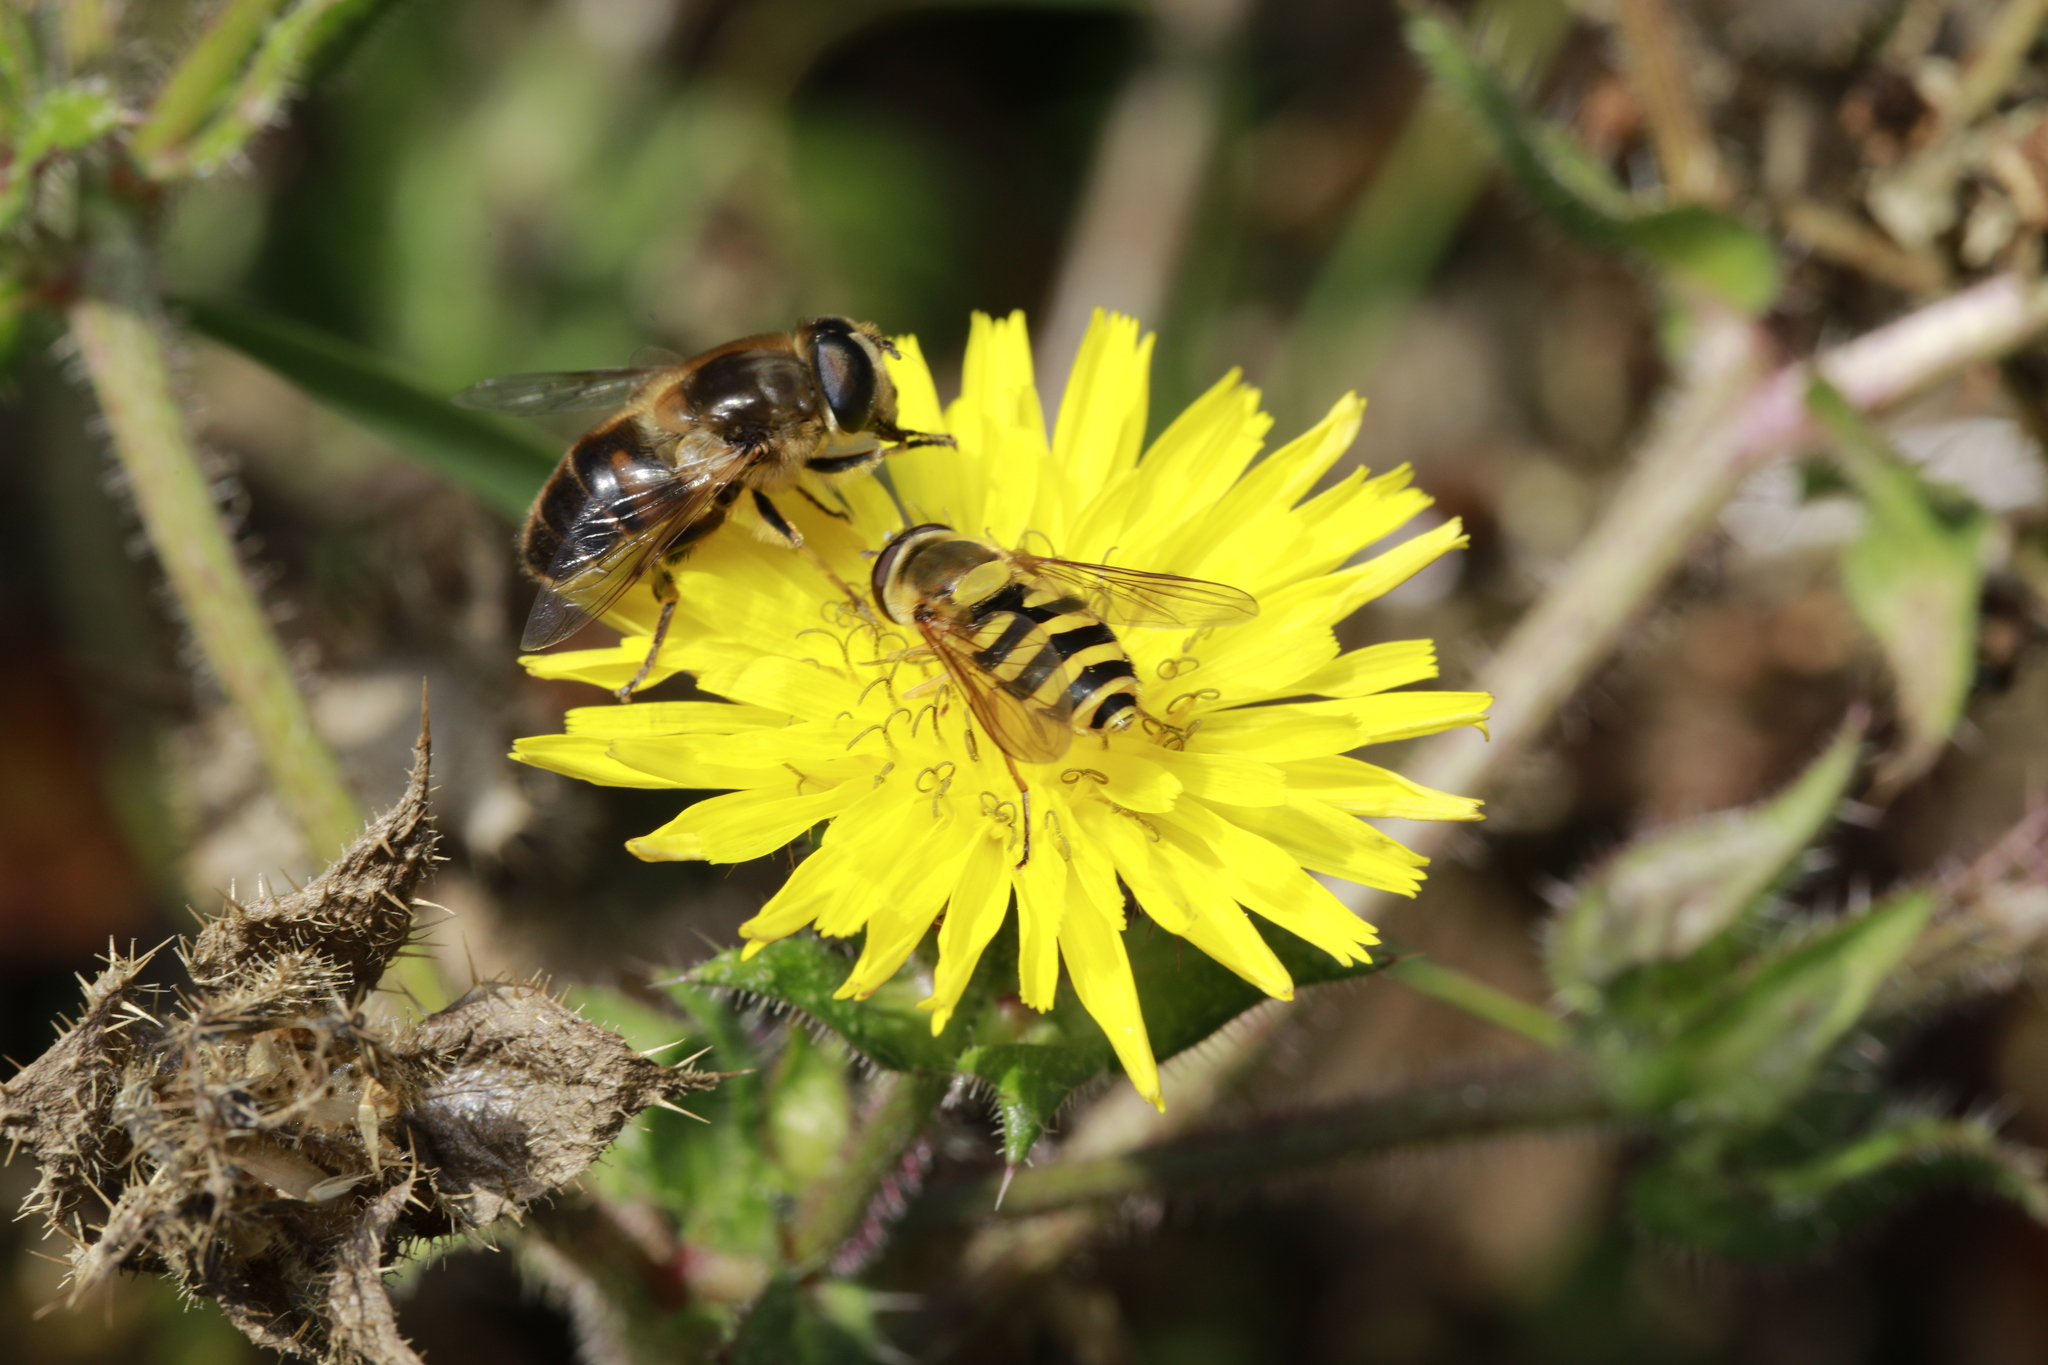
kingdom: Animalia
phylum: Arthropoda
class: Insecta
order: Diptera
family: Syrphidae
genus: Eristalis
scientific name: Eristalis tenax
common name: Drone fly
